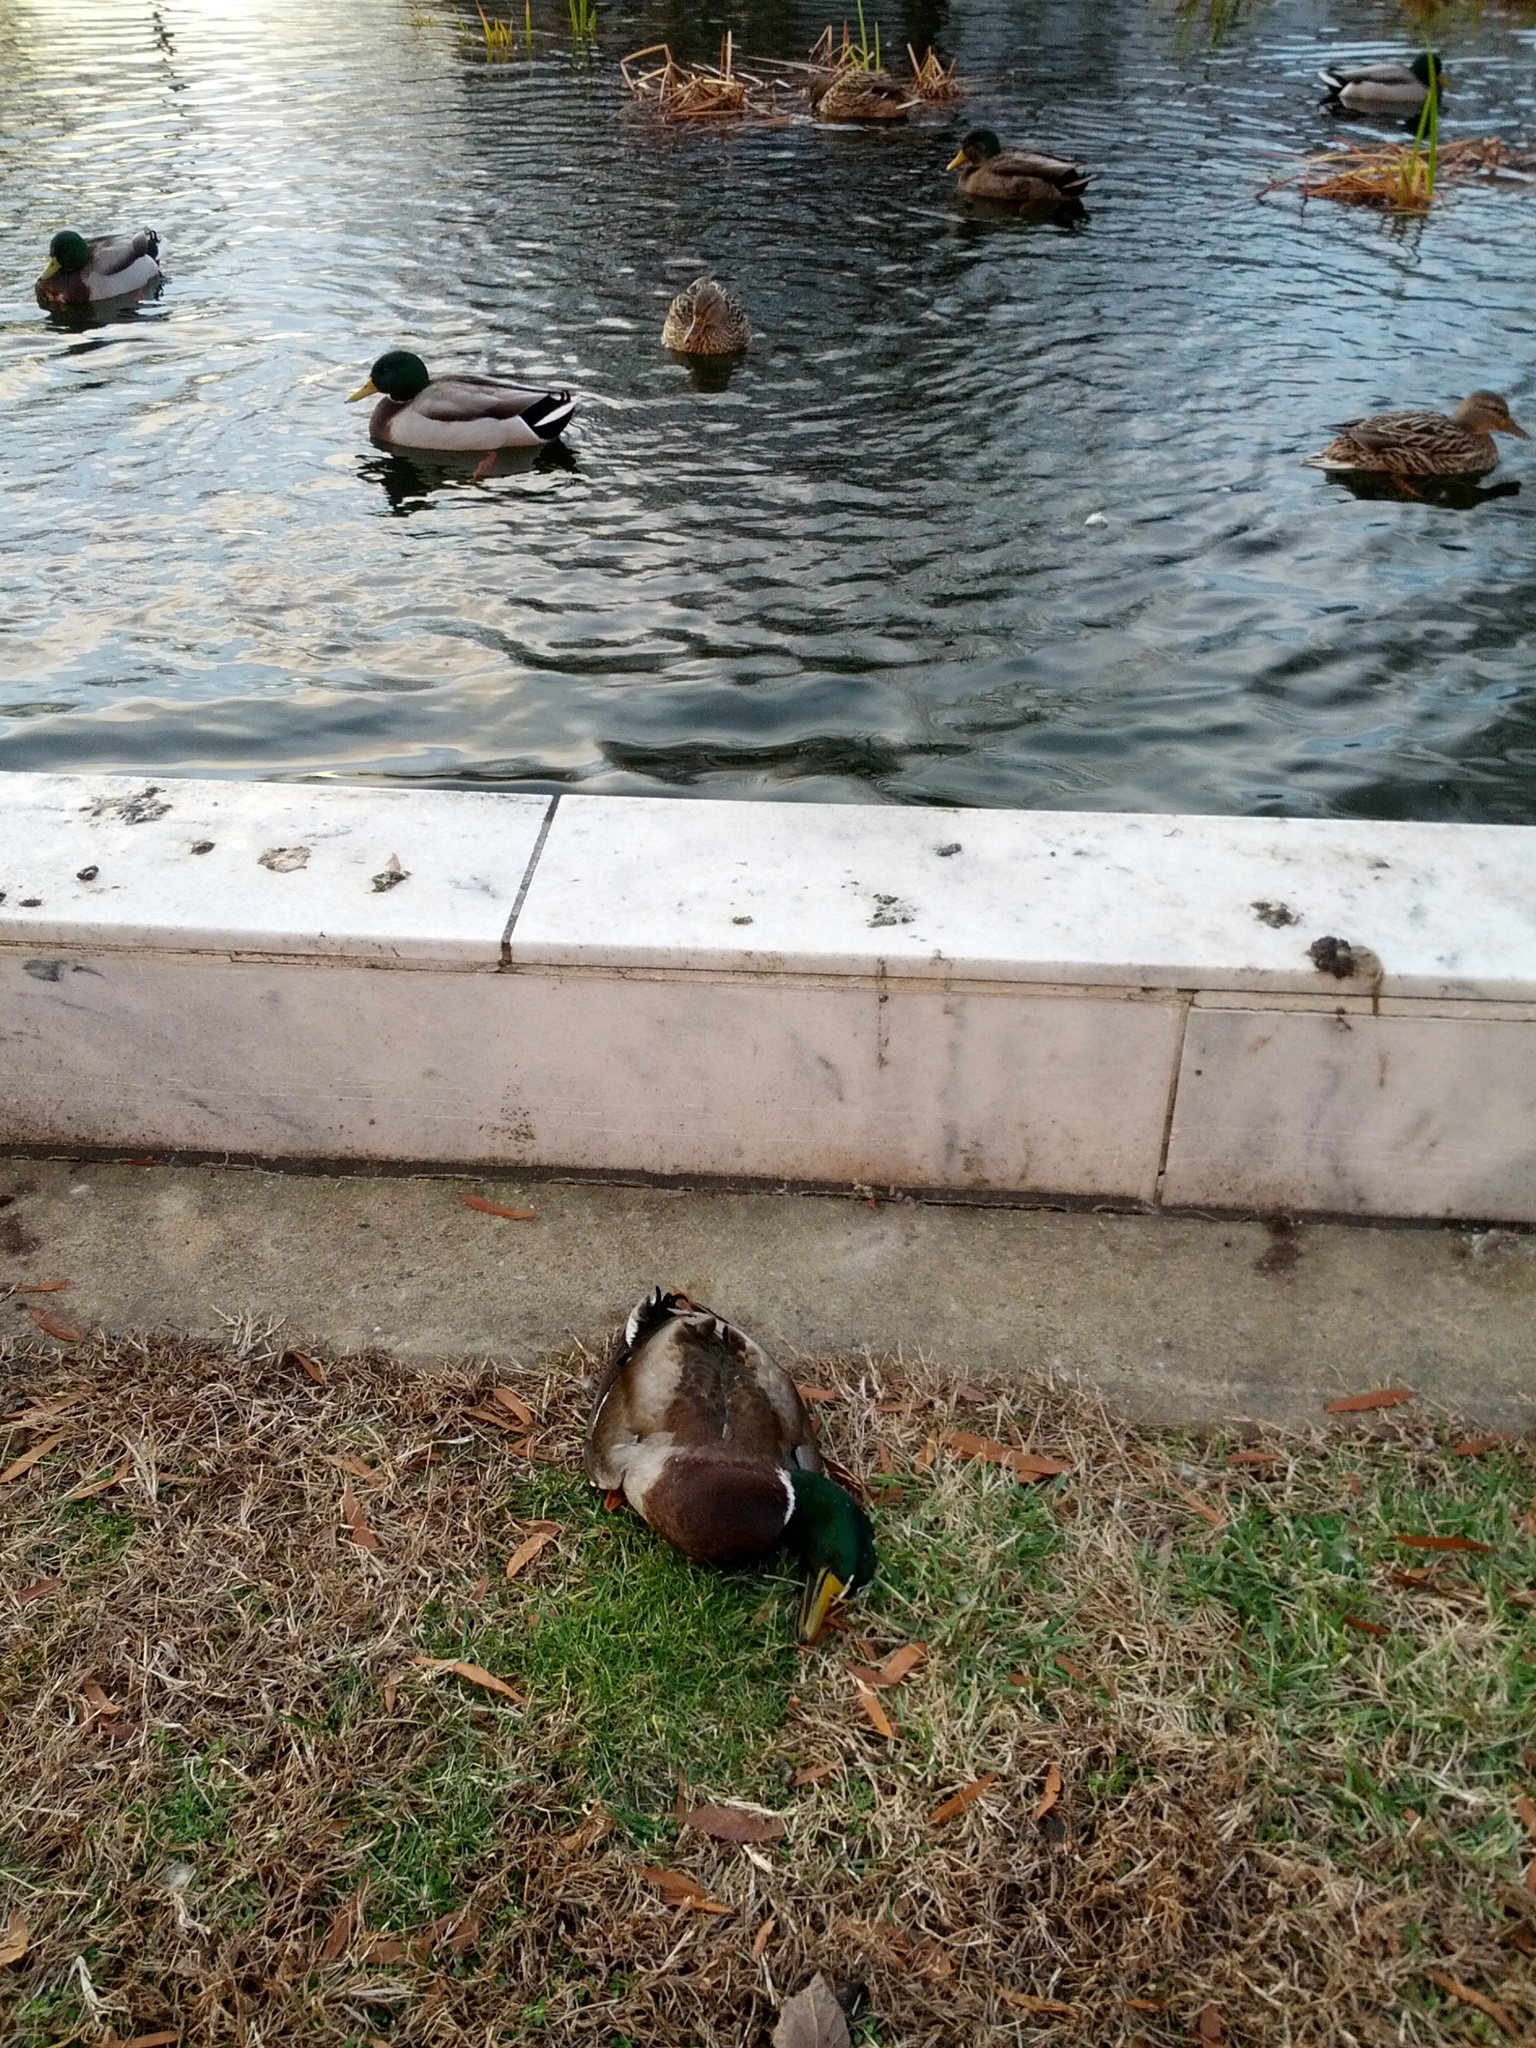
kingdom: Animalia
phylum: Chordata
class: Aves
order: Anseriformes
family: Anatidae
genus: Anas
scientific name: Anas platyrhynchos
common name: Mallard
